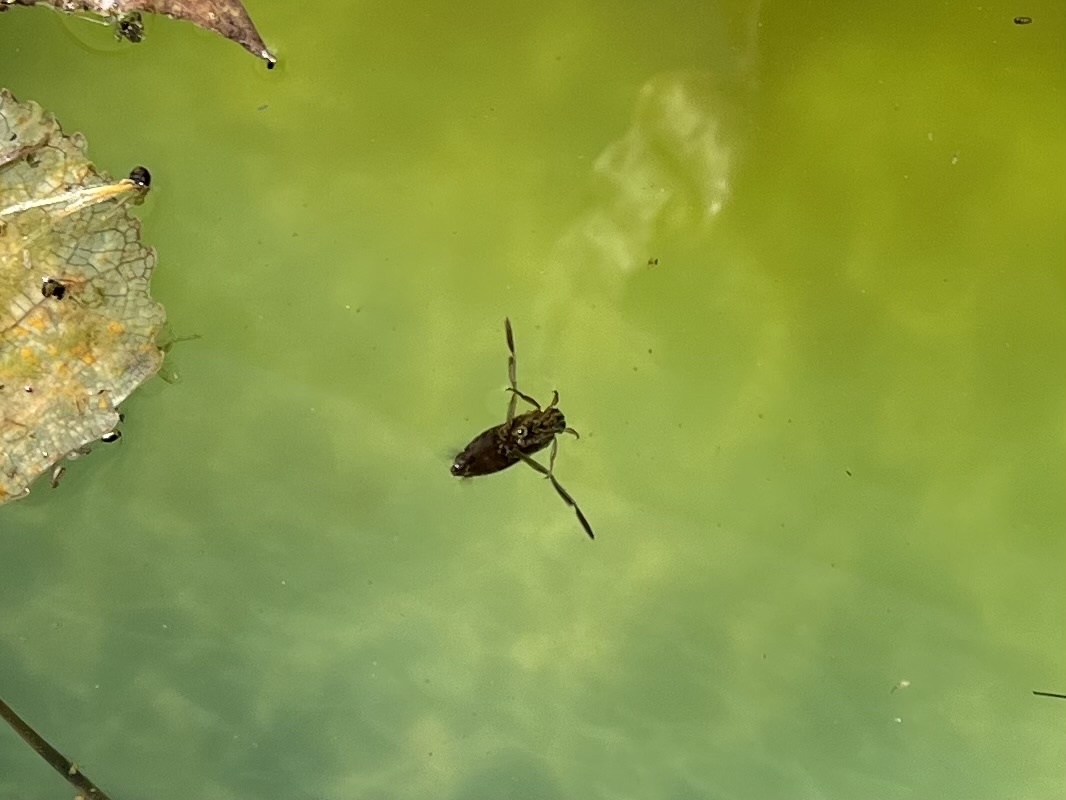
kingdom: Animalia
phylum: Arthropoda
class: Insecta
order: Hemiptera
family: Notonectidae
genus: Notonecta
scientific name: Notonecta
